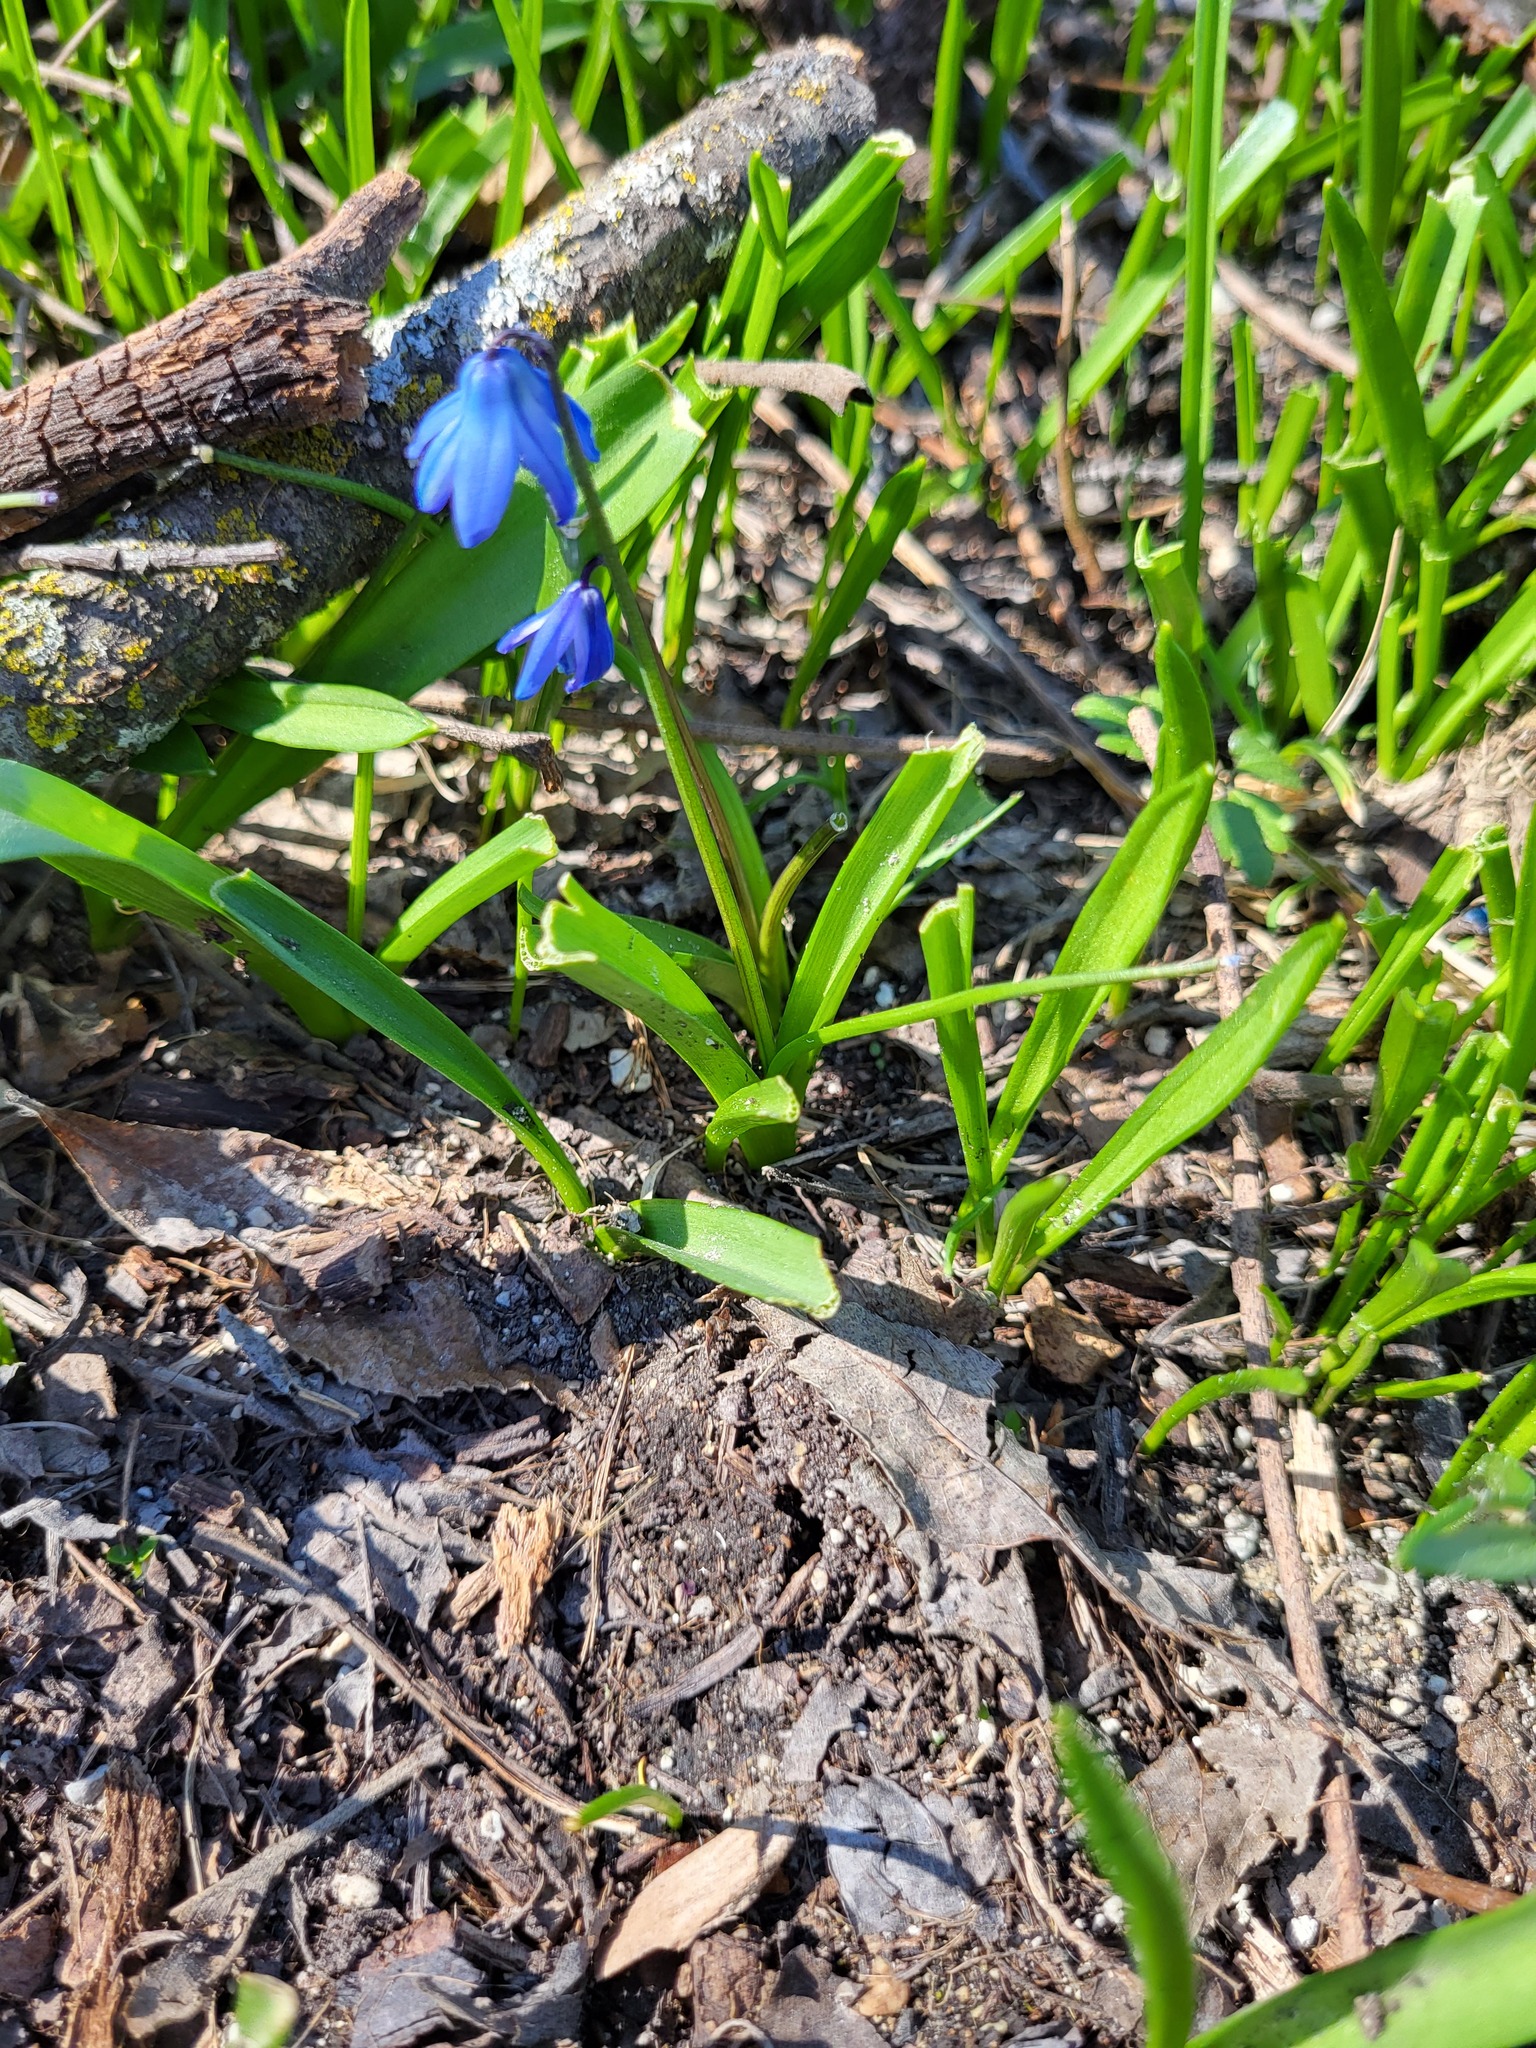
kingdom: Plantae
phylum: Tracheophyta
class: Liliopsida
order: Asparagales
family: Asparagaceae
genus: Scilla
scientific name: Scilla siberica
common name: Siberian squill
